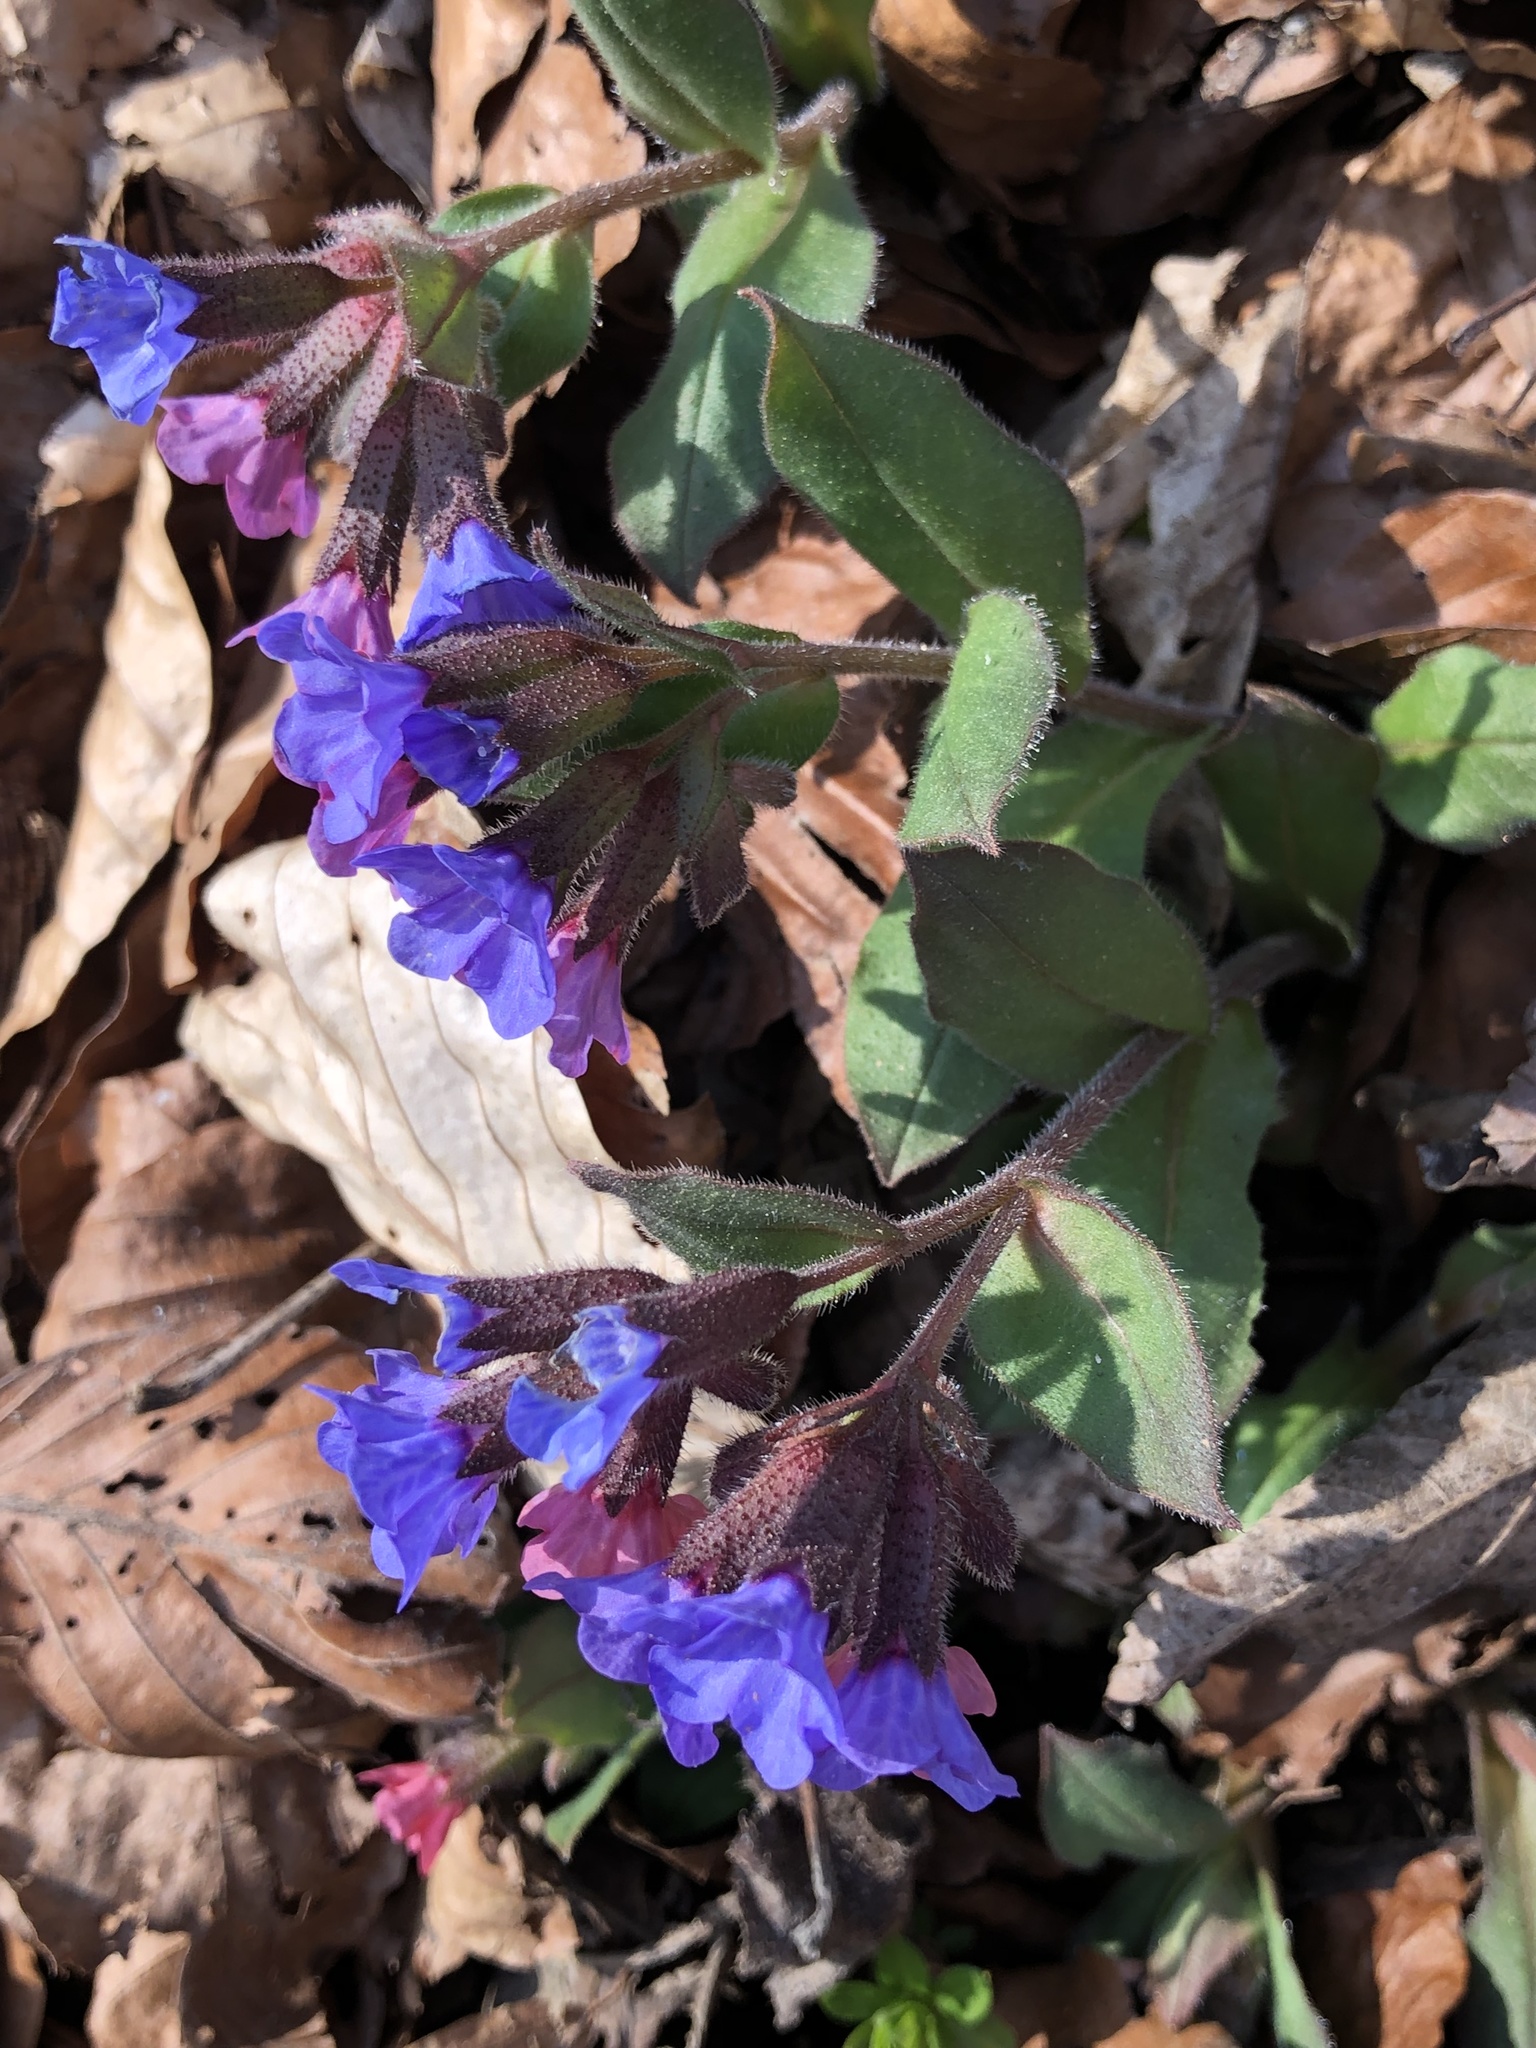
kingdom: Plantae
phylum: Tracheophyta
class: Magnoliopsida
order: Boraginales
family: Boraginaceae
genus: Pulmonaria
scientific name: Pulmonaria obscura
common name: Suffolk lungwort
